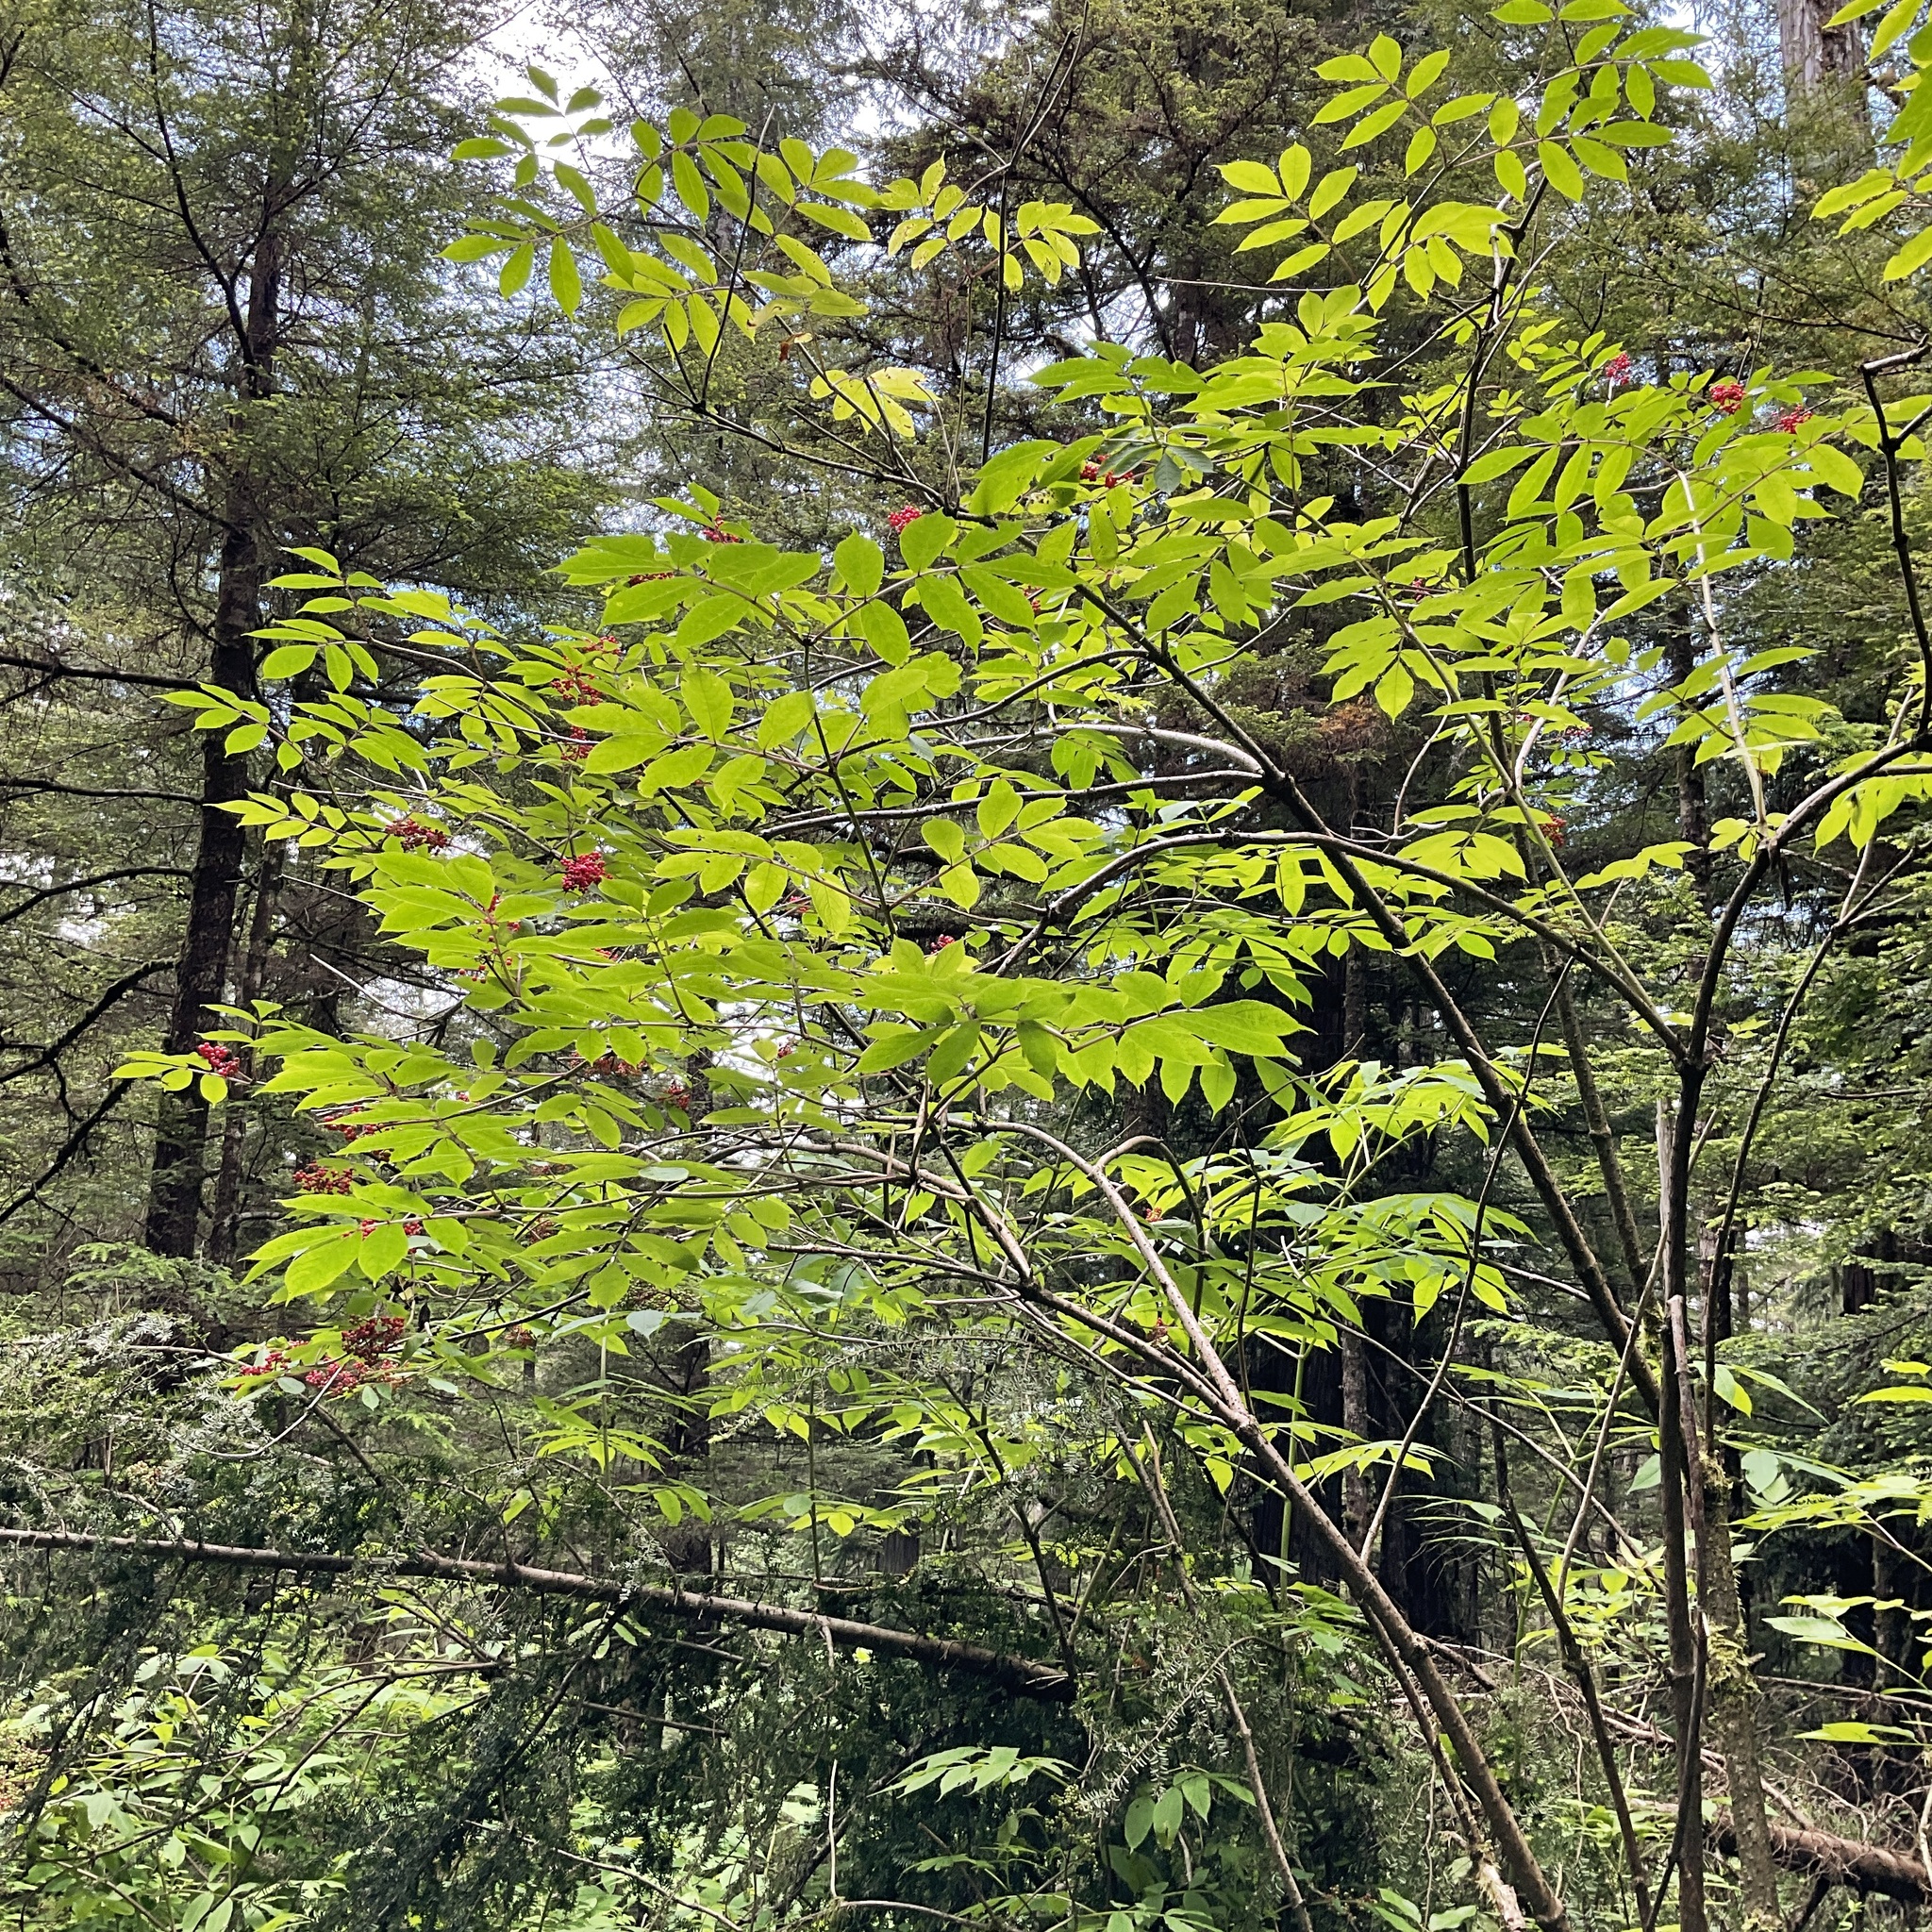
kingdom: Plantae
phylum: Tracheophyta
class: Magnoliopsida
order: Dipsacales
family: Viburnaceae
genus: Sambucus
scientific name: Sambucus racemosa
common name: Red-berried elder
